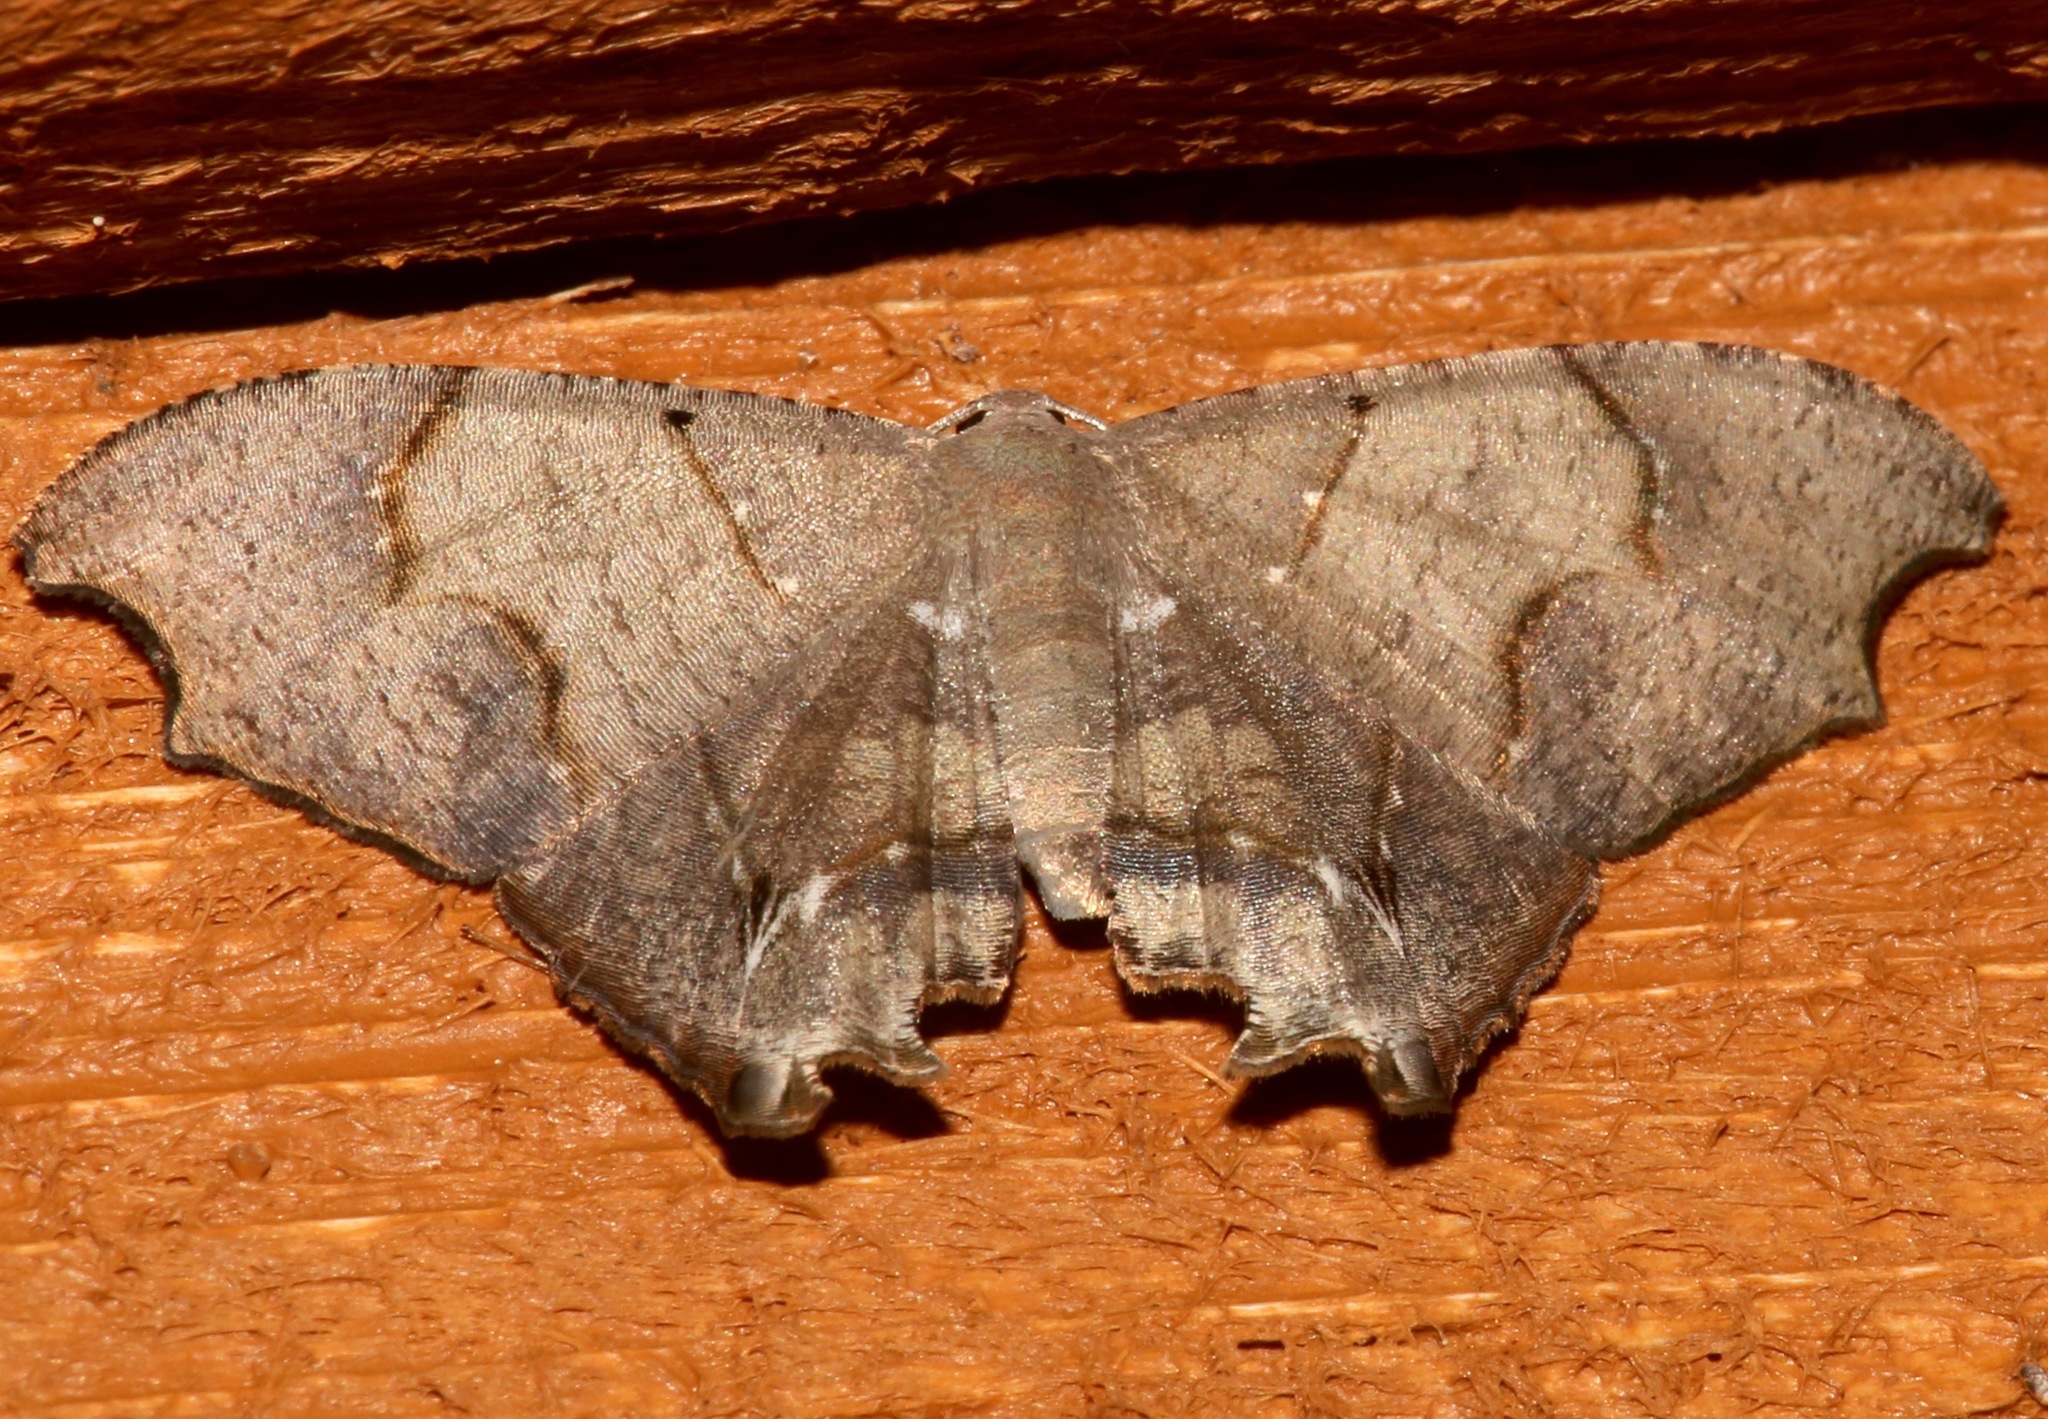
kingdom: Animalia
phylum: Arthropoda
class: Insecta
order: Lepidoptera
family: Uraniidae
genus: Trotorhombia
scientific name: Trotorhombia metachromata
